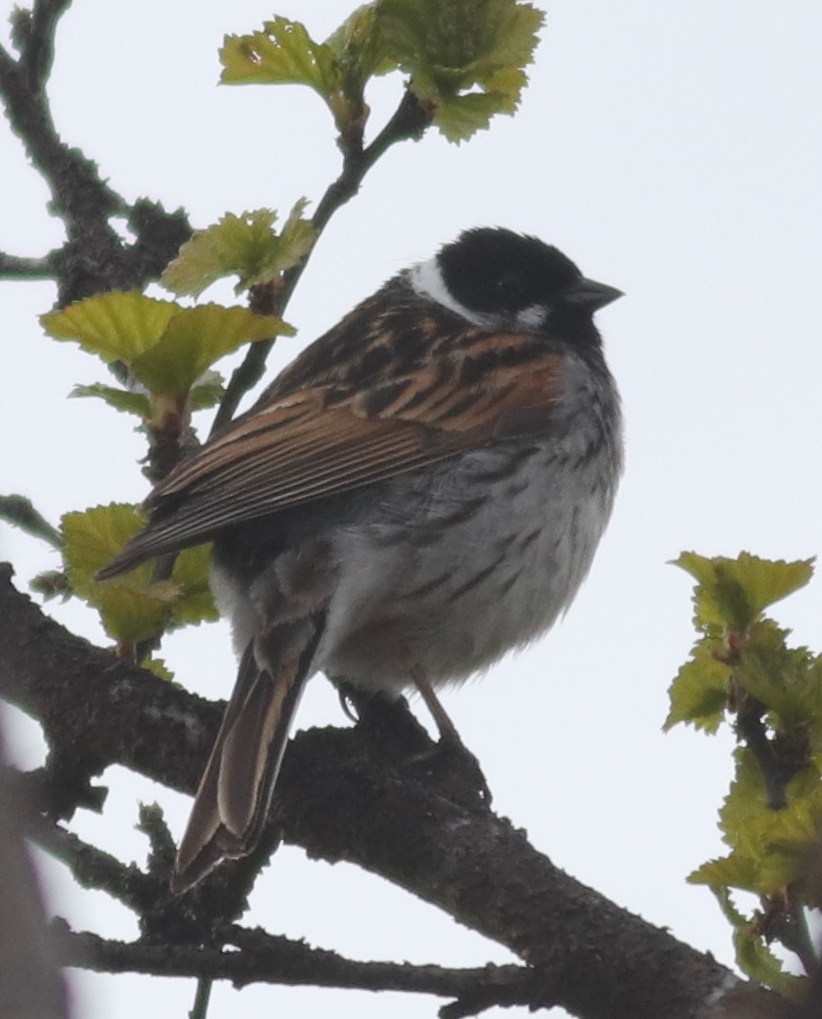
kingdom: Animalia
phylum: Chordata
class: Aves
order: Passeriformes
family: Emberizidae
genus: Emberiza
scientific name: Emberiza schoeniclus
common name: Reed bunting
